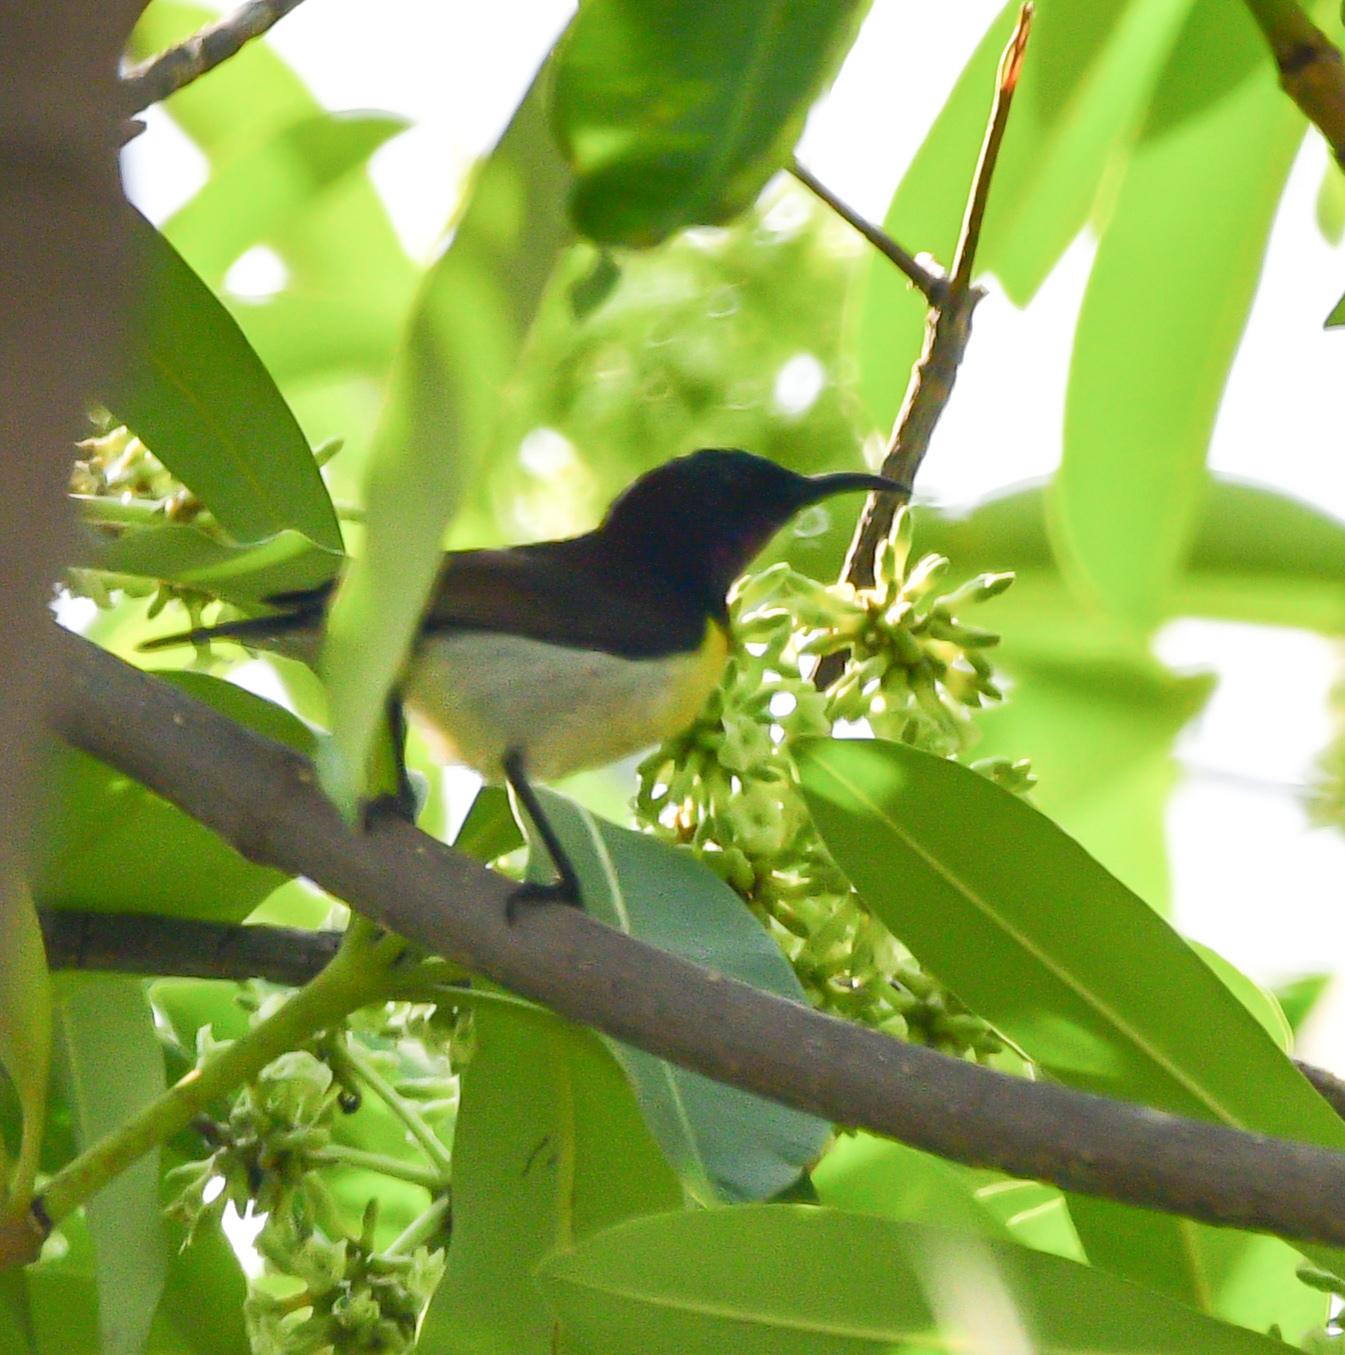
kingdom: Animalia
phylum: Chordata
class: Aves
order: Passeriformes
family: Nectariniidae
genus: Leptocoma
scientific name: Leptocoma zeylonica
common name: Purple-rumped sunbird
